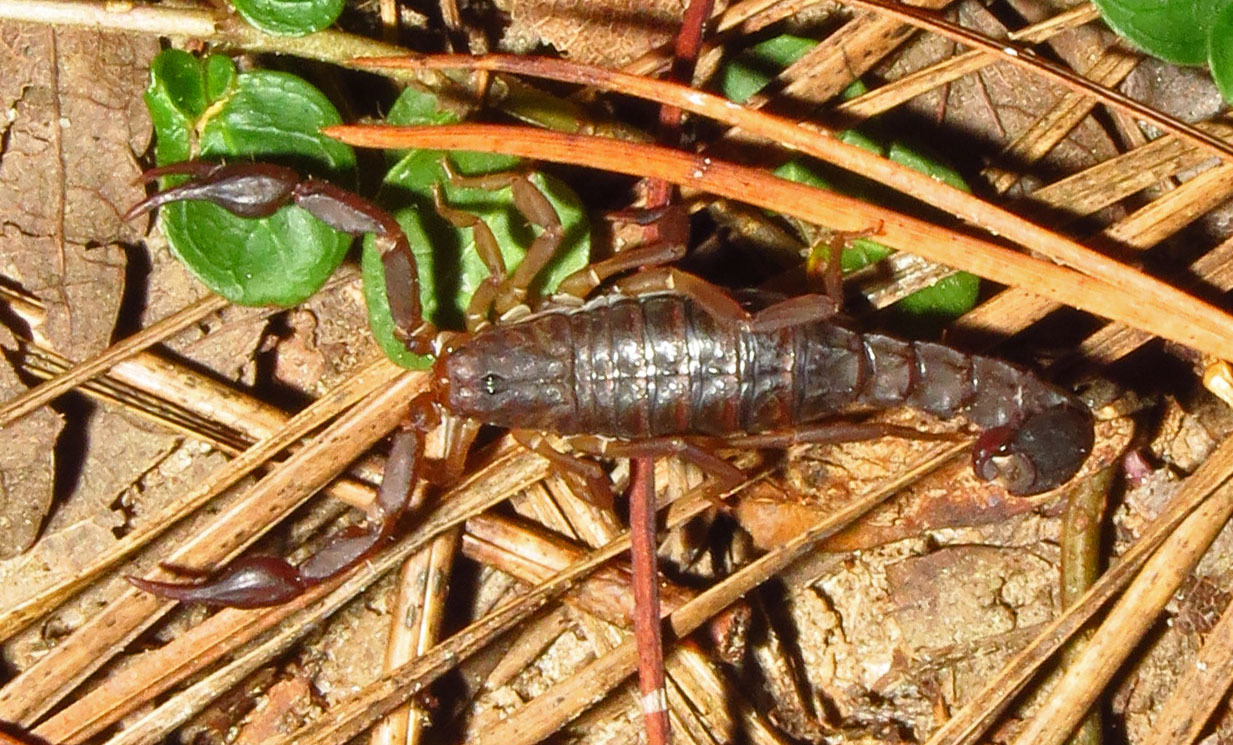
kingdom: Animalia
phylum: Arthropoda
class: Arachnida
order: Scorpiones
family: Vaejovidae
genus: Vaejovis
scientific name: Vaejovis carolinianus
